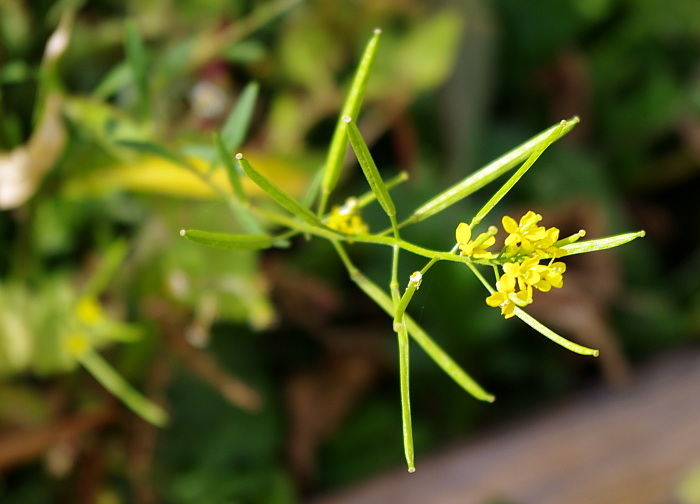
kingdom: Plantae
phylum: Tracheophyta
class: Magnoliopsida
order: Brassicales
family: Brassicaceae
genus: Erysimum
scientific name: Erysimum cheiranthoides
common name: Treacle mustard
